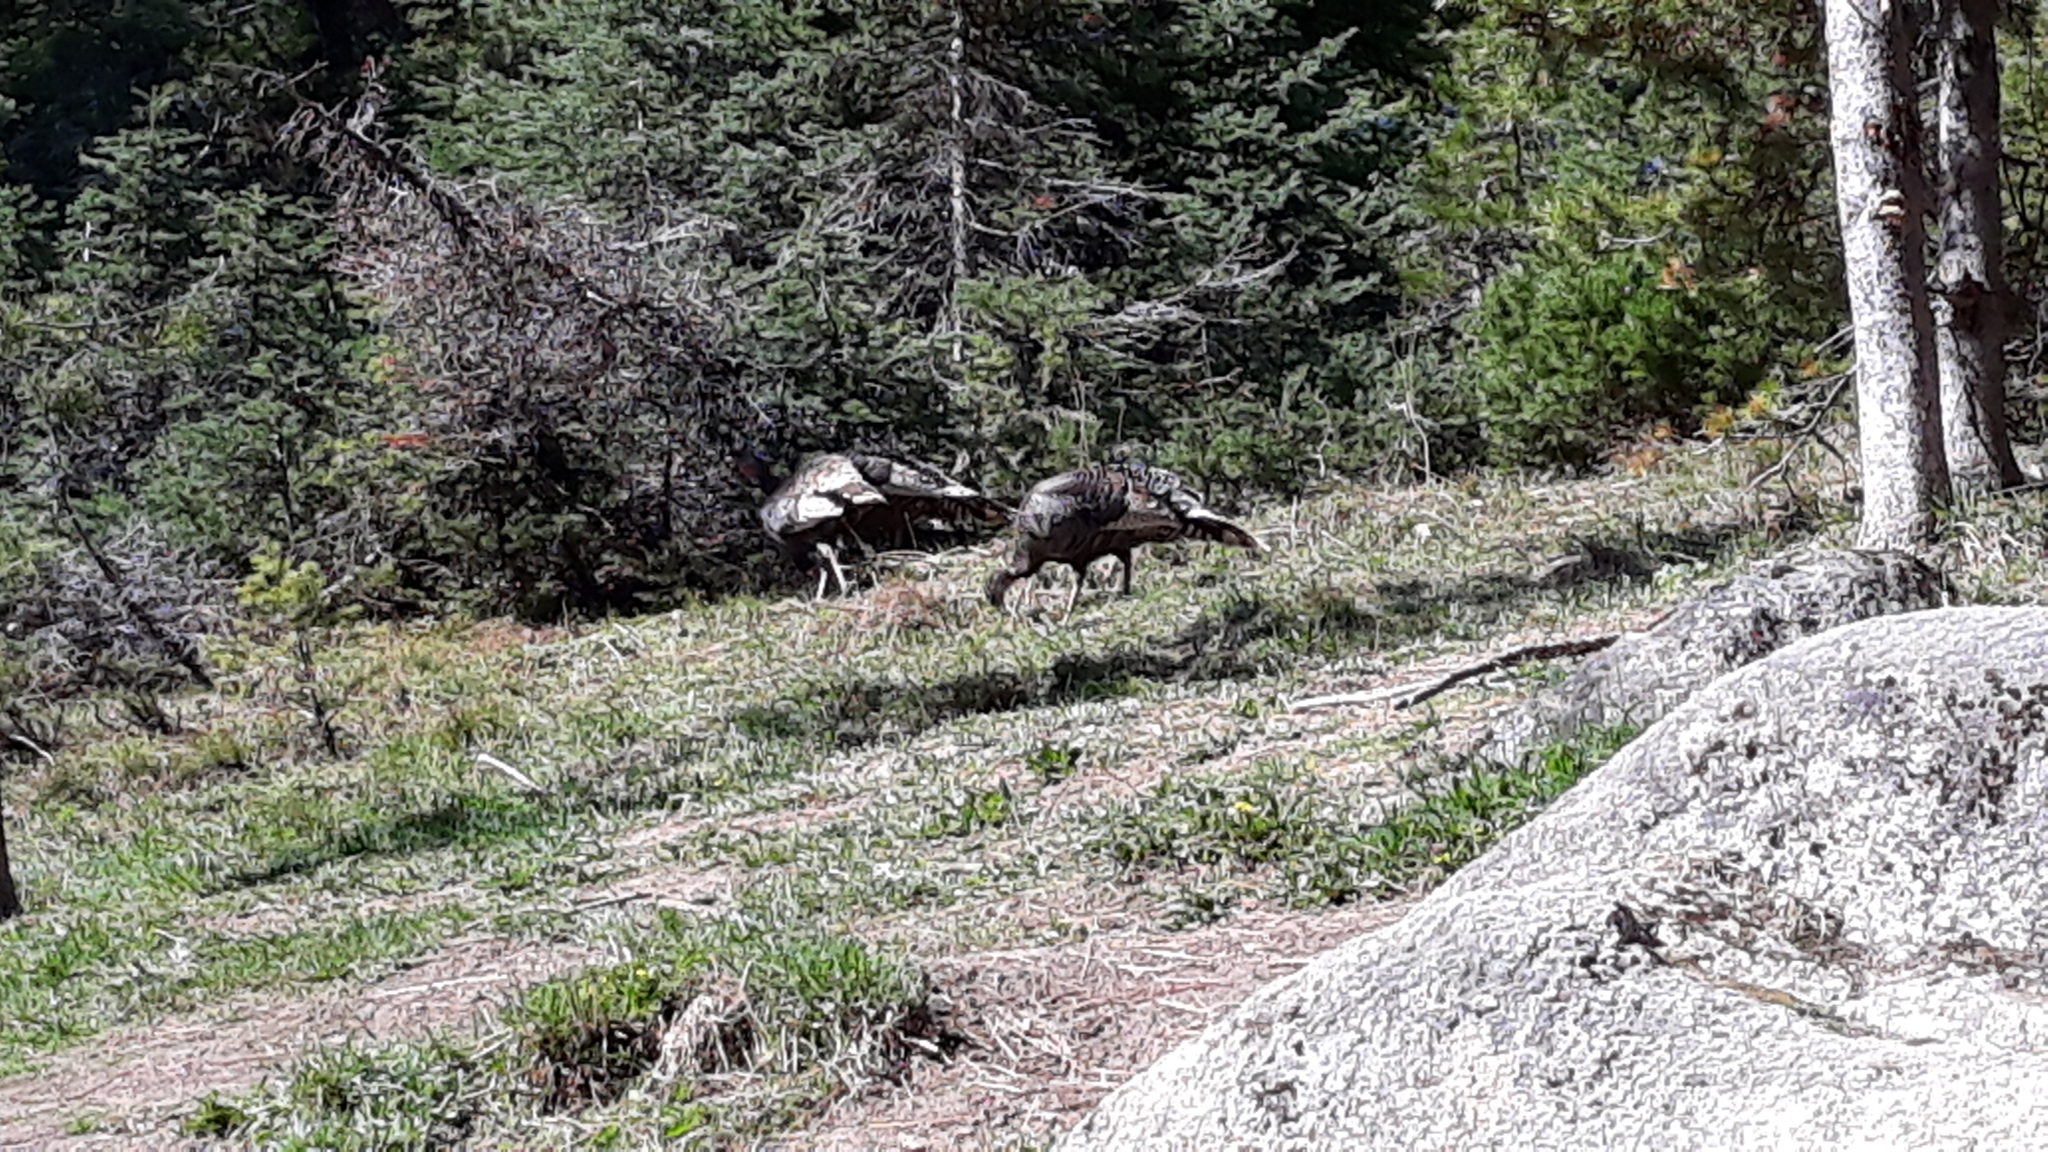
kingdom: Animalia
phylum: Chordata
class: Aves
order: Galliformes
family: Phasianidae
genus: Meleagris
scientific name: Meleagris gallopavo
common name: Wild turkey
